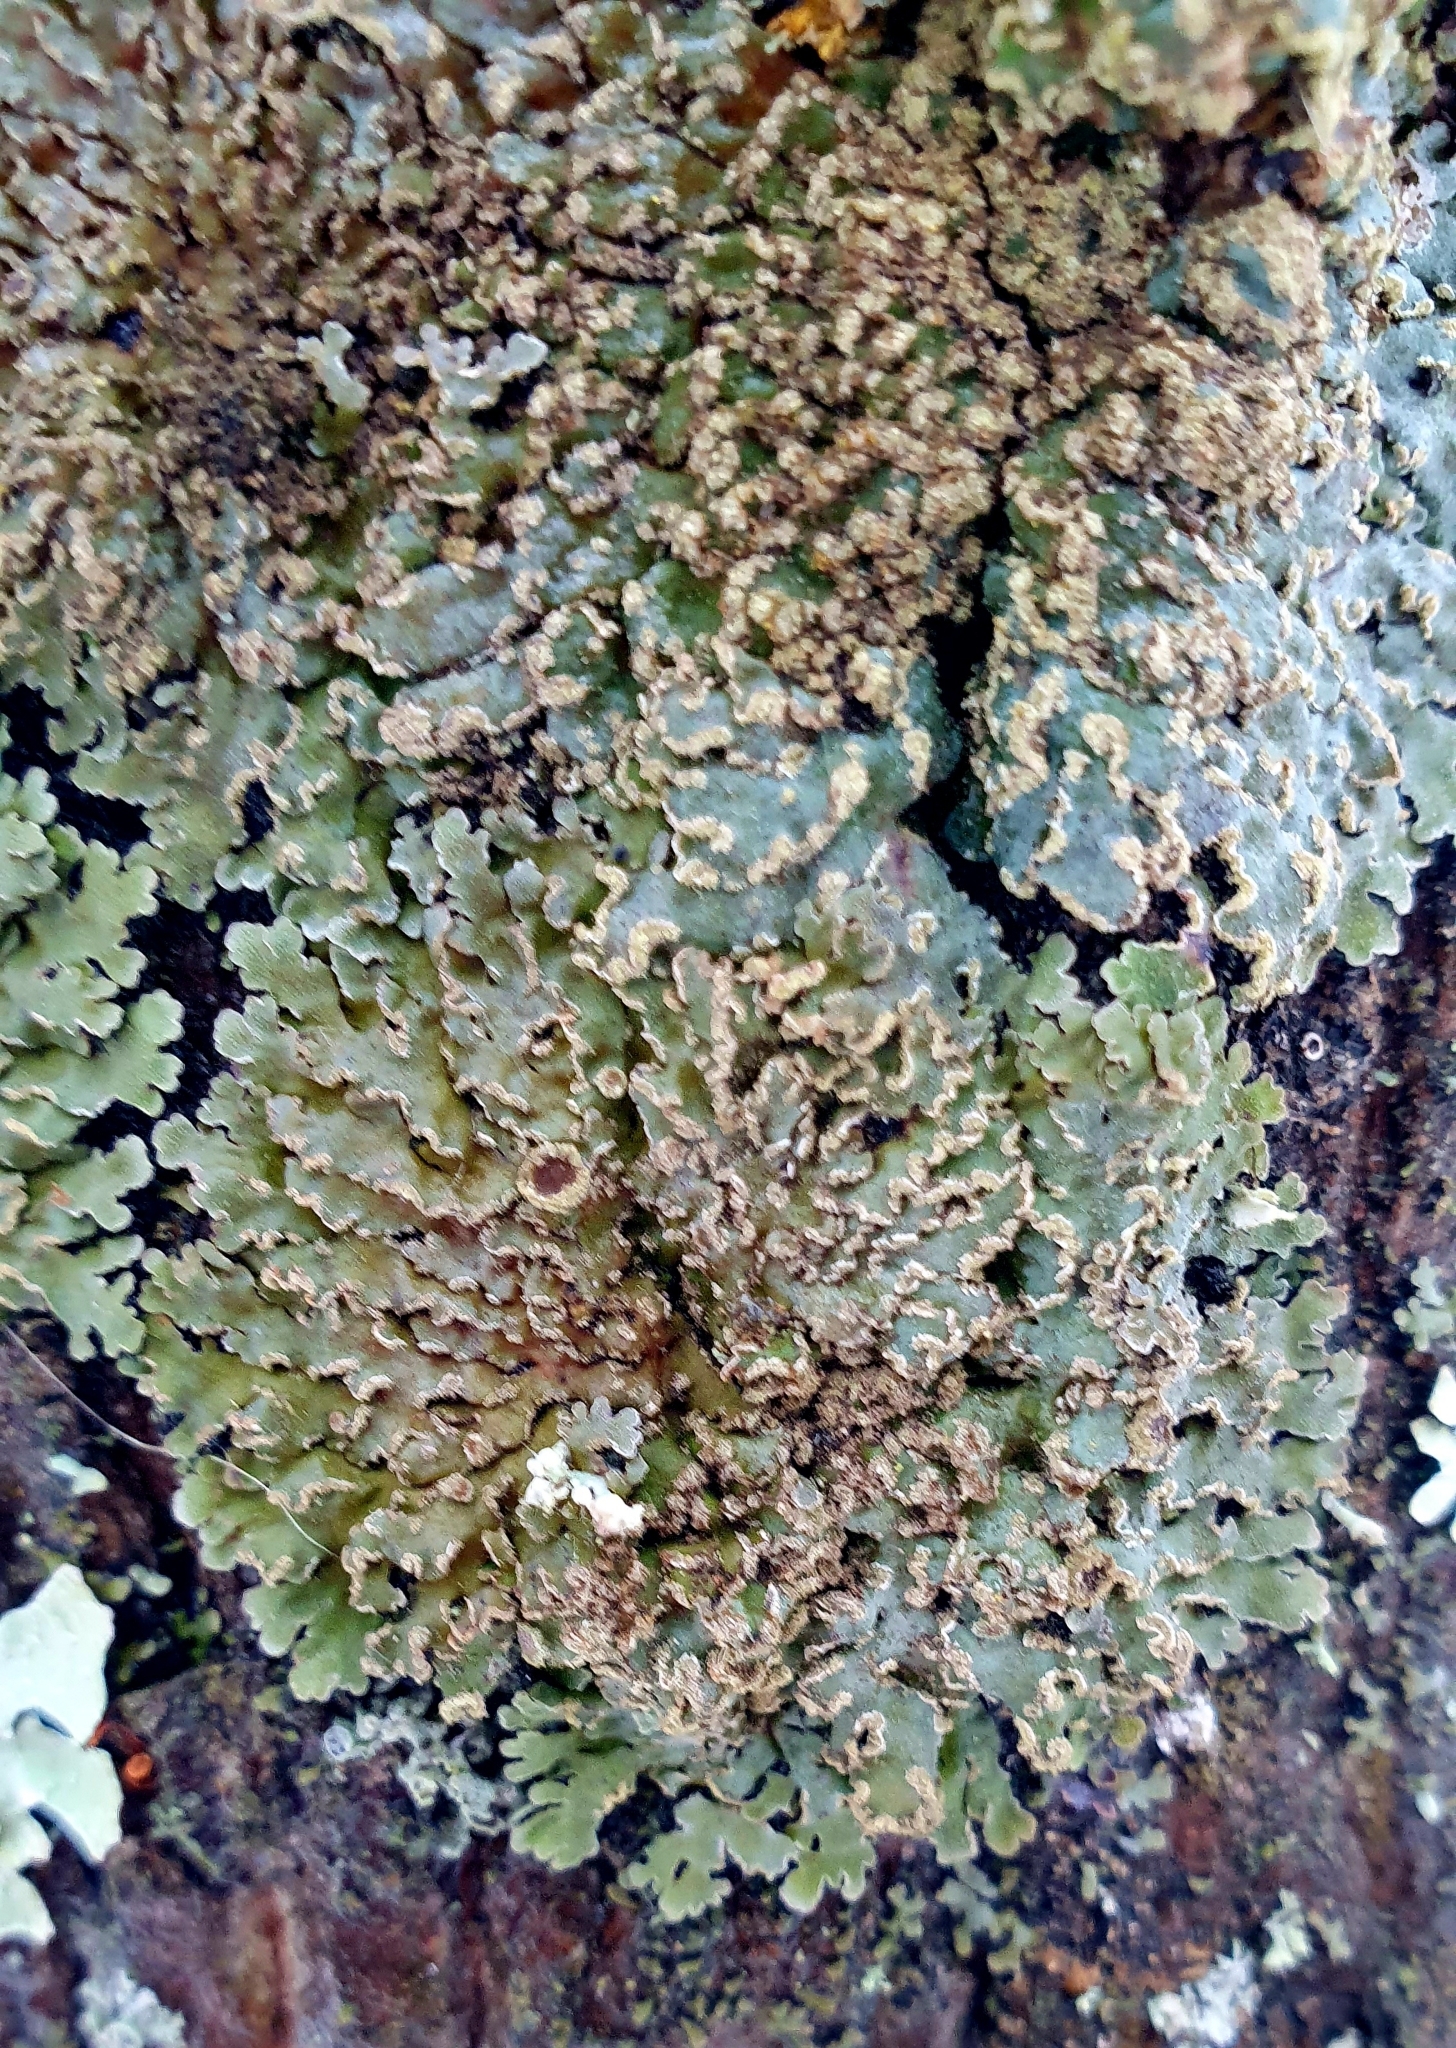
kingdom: Fungi
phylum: Ascomycota
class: Lecanoromycetes
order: Caliciales
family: Physciaceae
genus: Physconia
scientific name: Physconia enteroxantha
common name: Yellow-edged frost lichen
